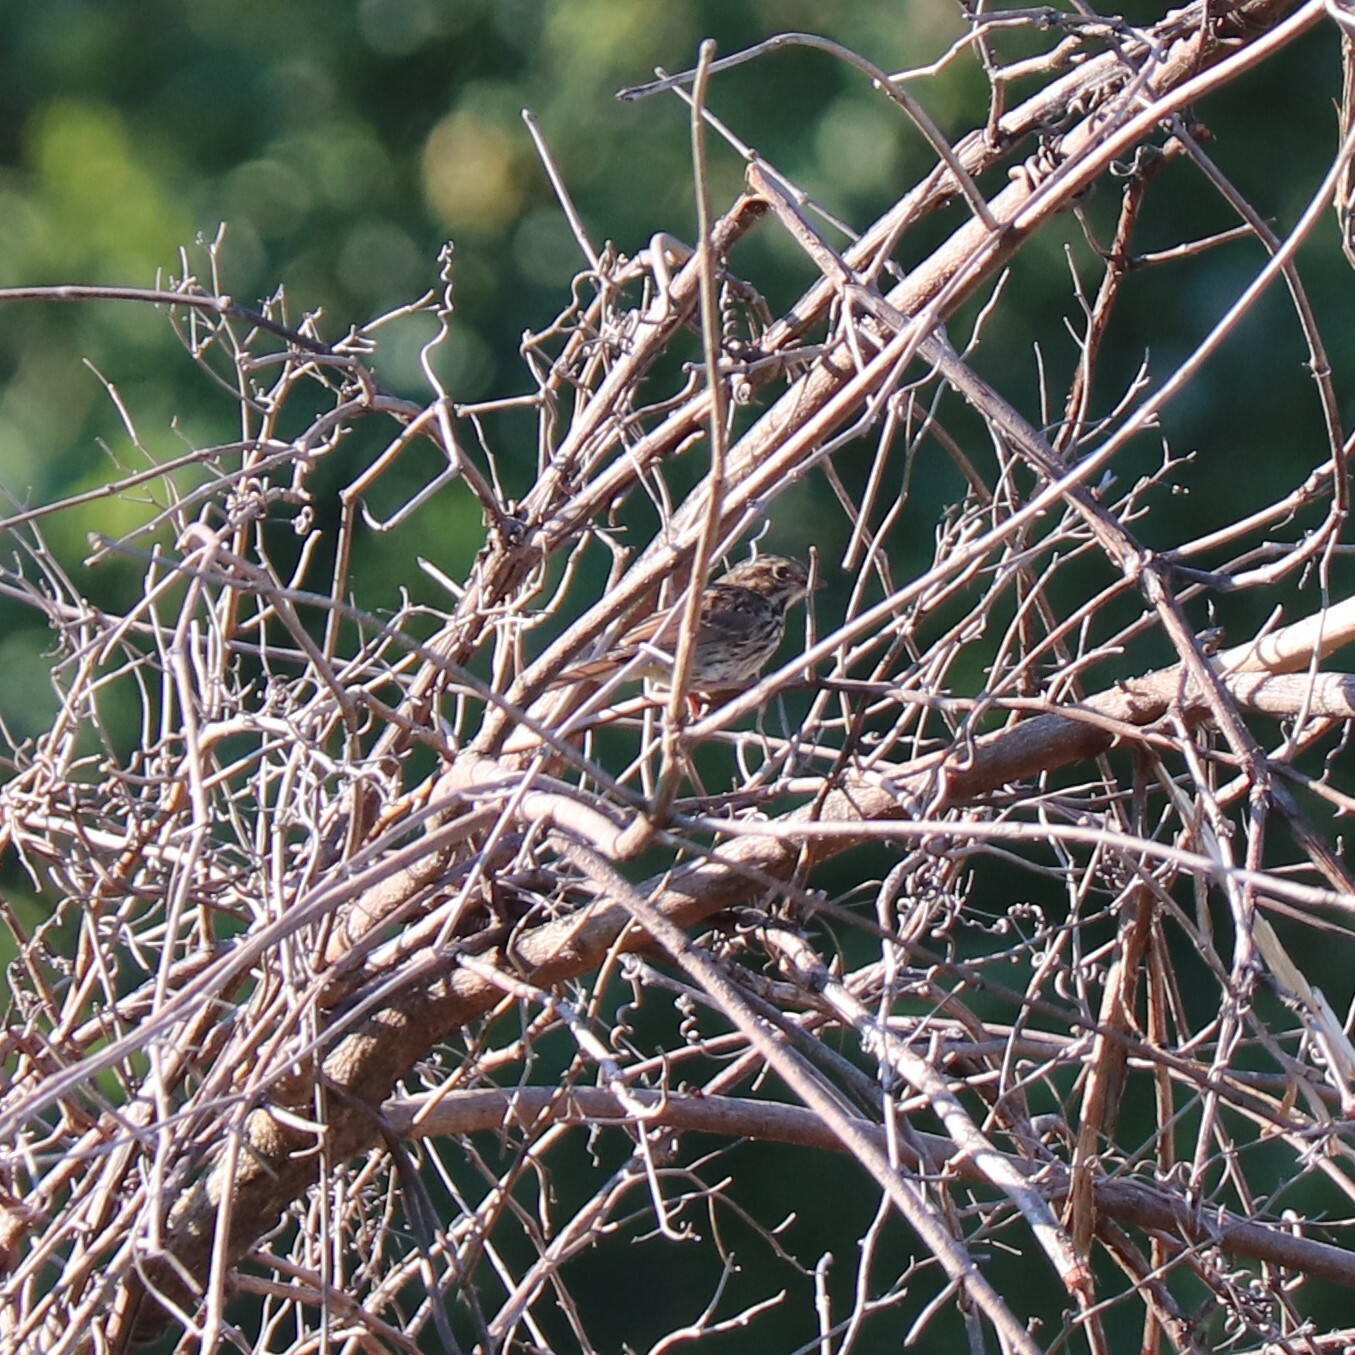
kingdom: Animalia
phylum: Chordata
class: Aves
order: Passeriformes
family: Passerellidae
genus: Melospiza
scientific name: Melospiza melodia
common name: Song sparrow
